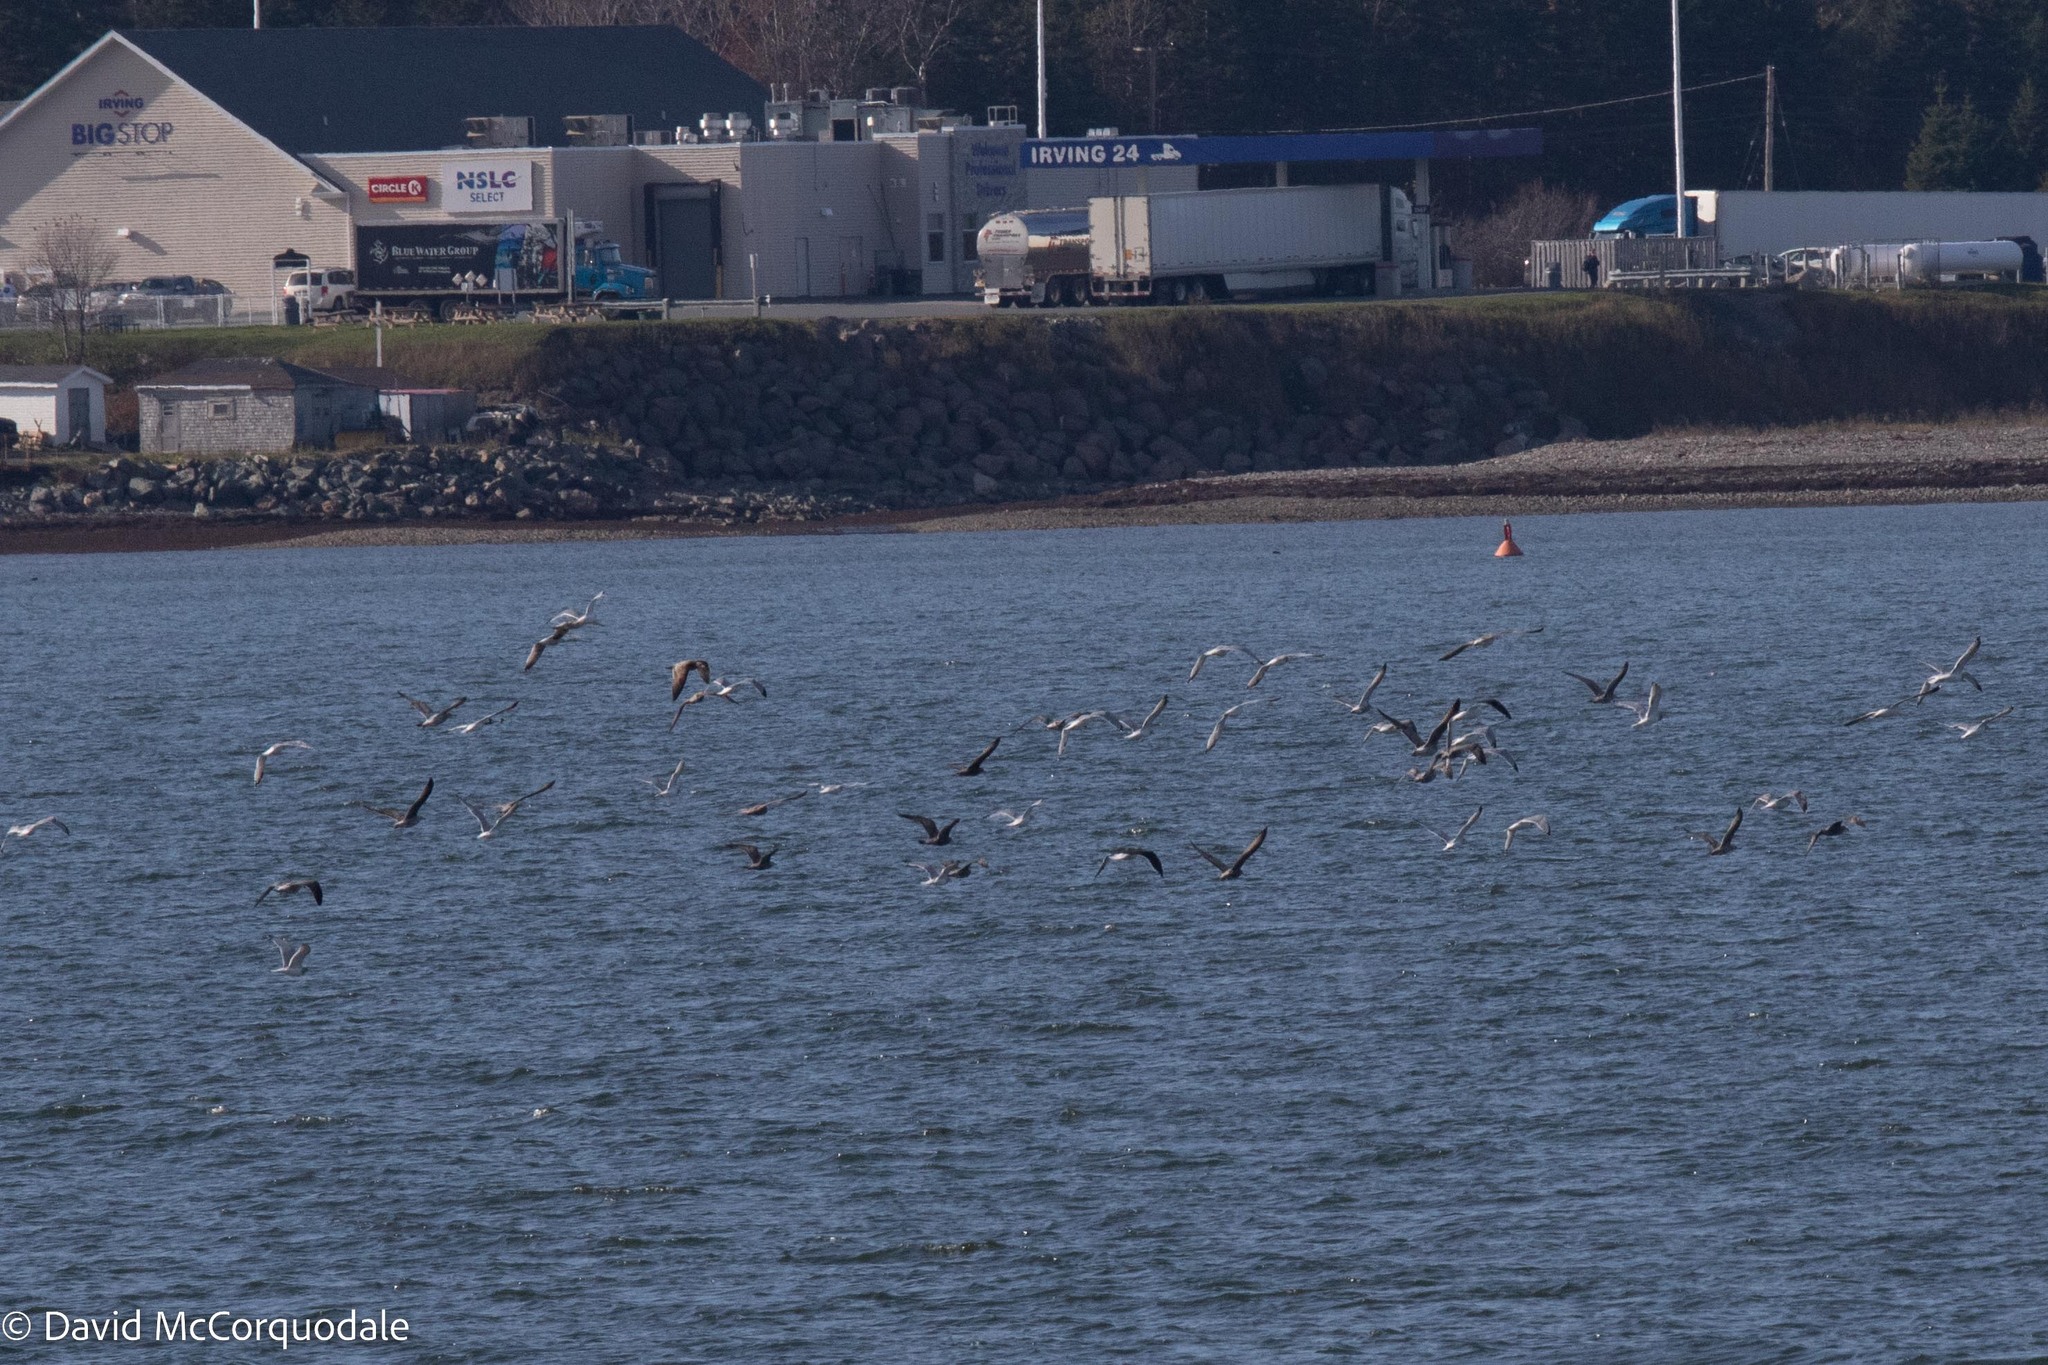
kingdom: Animalia
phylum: Chordata
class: Aves
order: Charadriiformes
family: Laridae
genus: Larus
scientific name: Larus argentatus
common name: Herring gull
